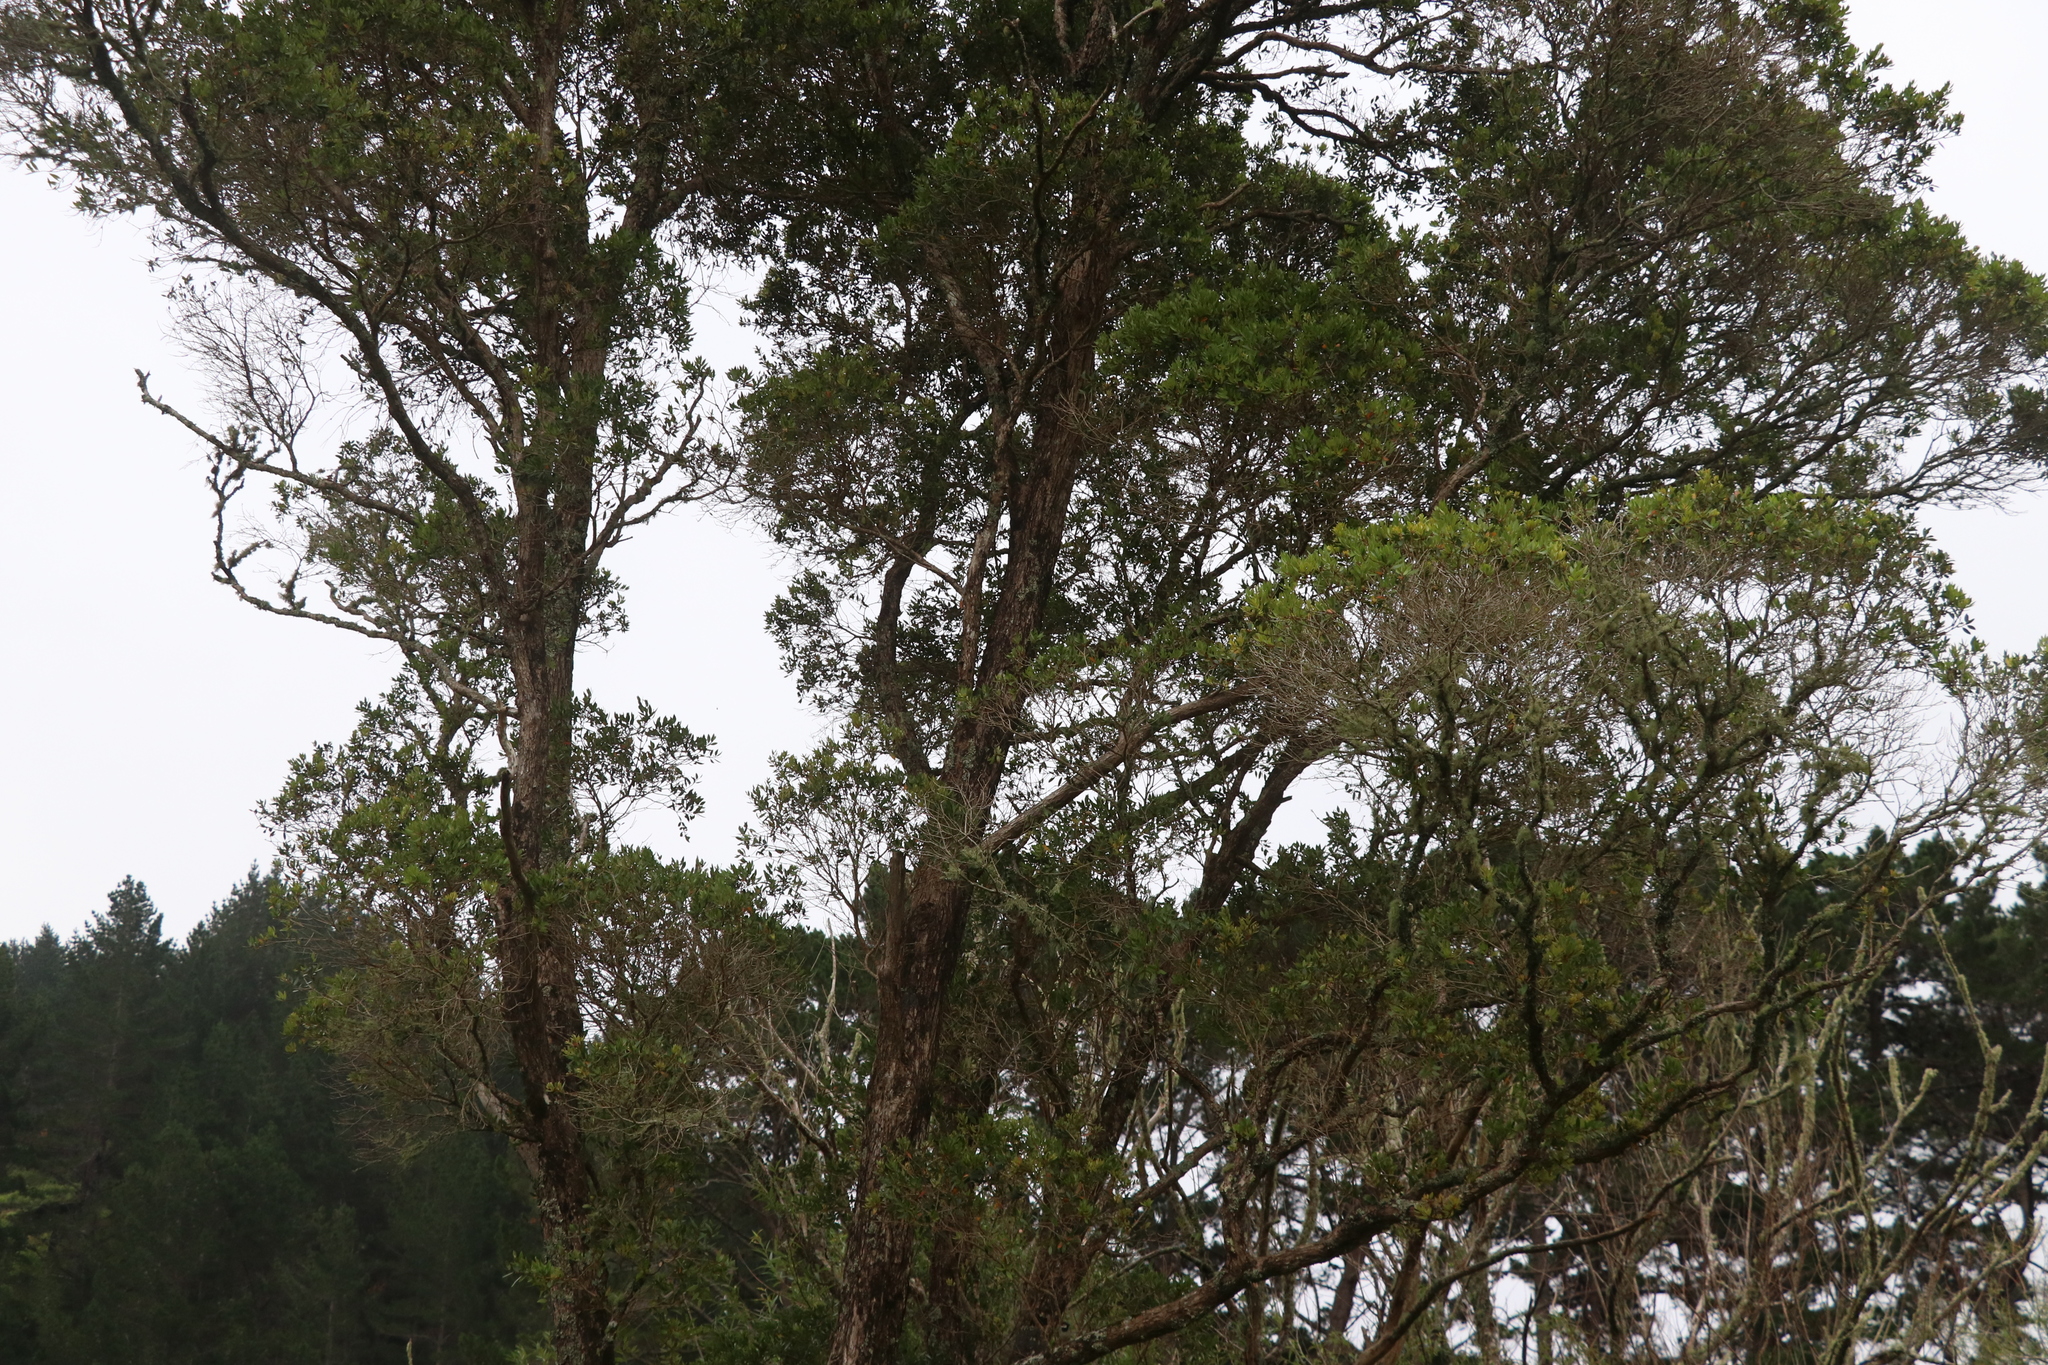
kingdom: Plantae
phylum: Tracheophyta
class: Magnoliopsida
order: Myrtales
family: Myrtaceae
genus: Metrosideros
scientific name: Metrosideros robusta
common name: Northern rata
